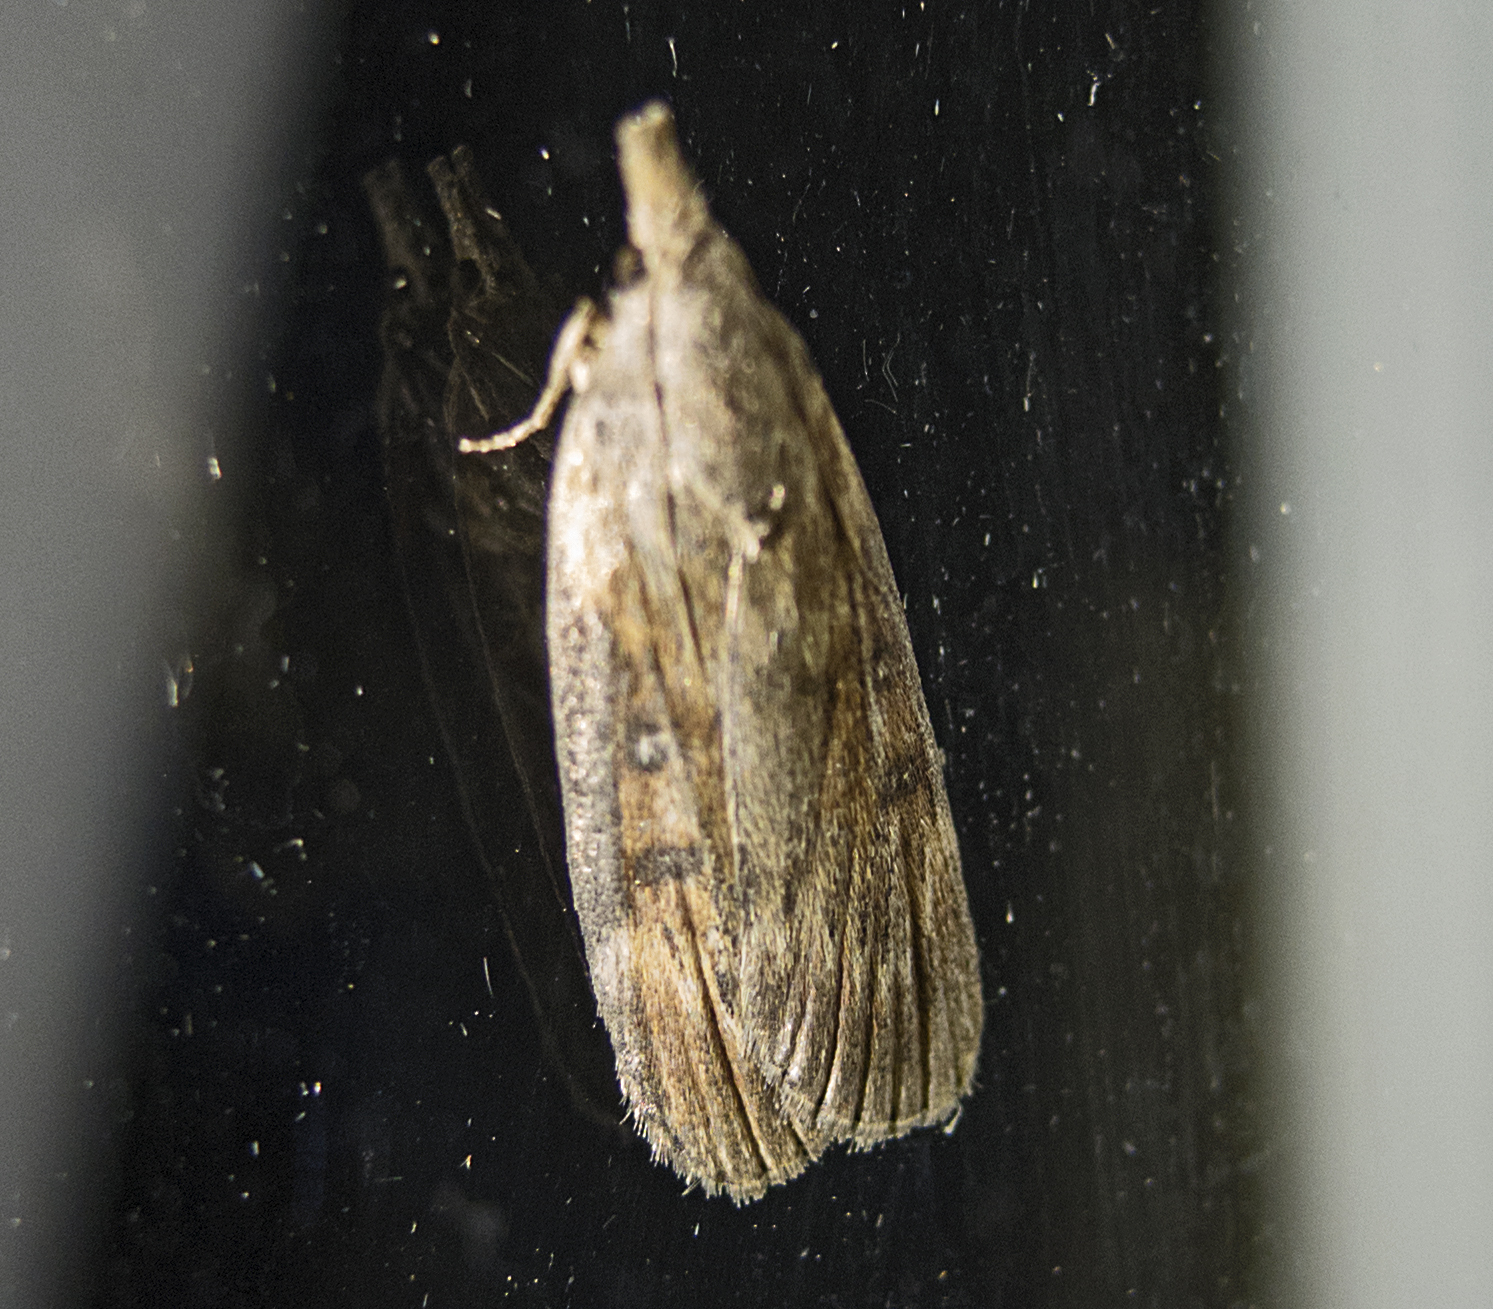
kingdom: Animalia
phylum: Arthropoda
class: Insecta
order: Lepidoptera
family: Pyralidae
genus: Lamoria
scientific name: Lamoria anella
